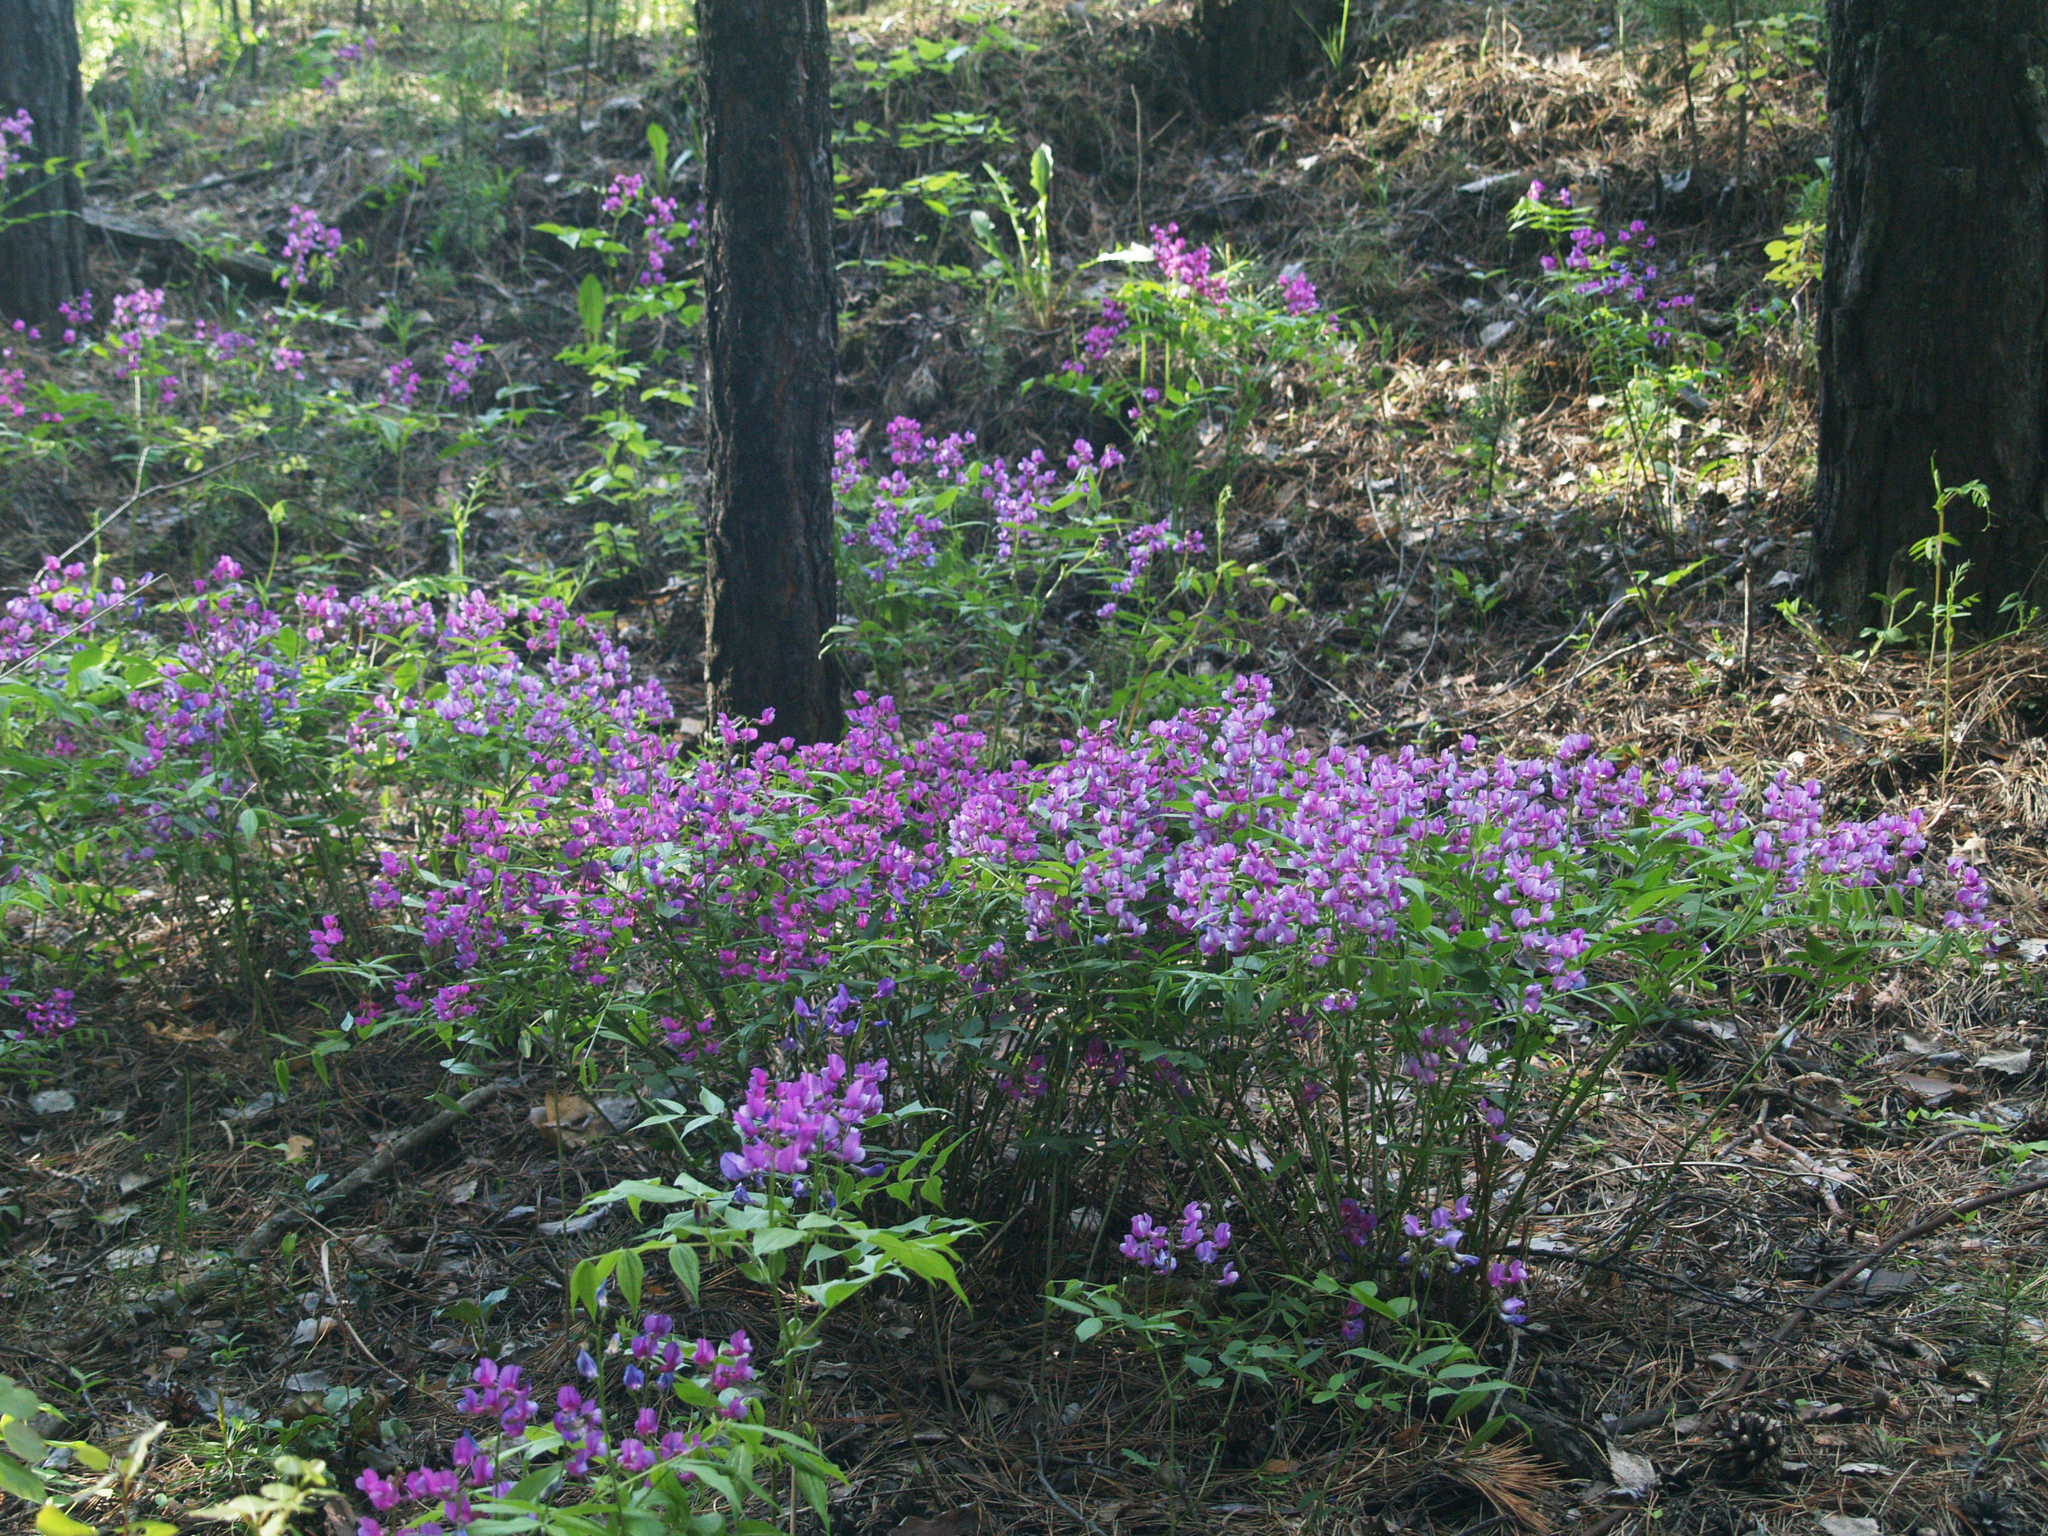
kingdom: Plantae
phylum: Tracheophyta
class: Magnoliopsida
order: Fabales
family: Fabaceae
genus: Lathyrus
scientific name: Lathyrus vernus
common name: Spring pea
